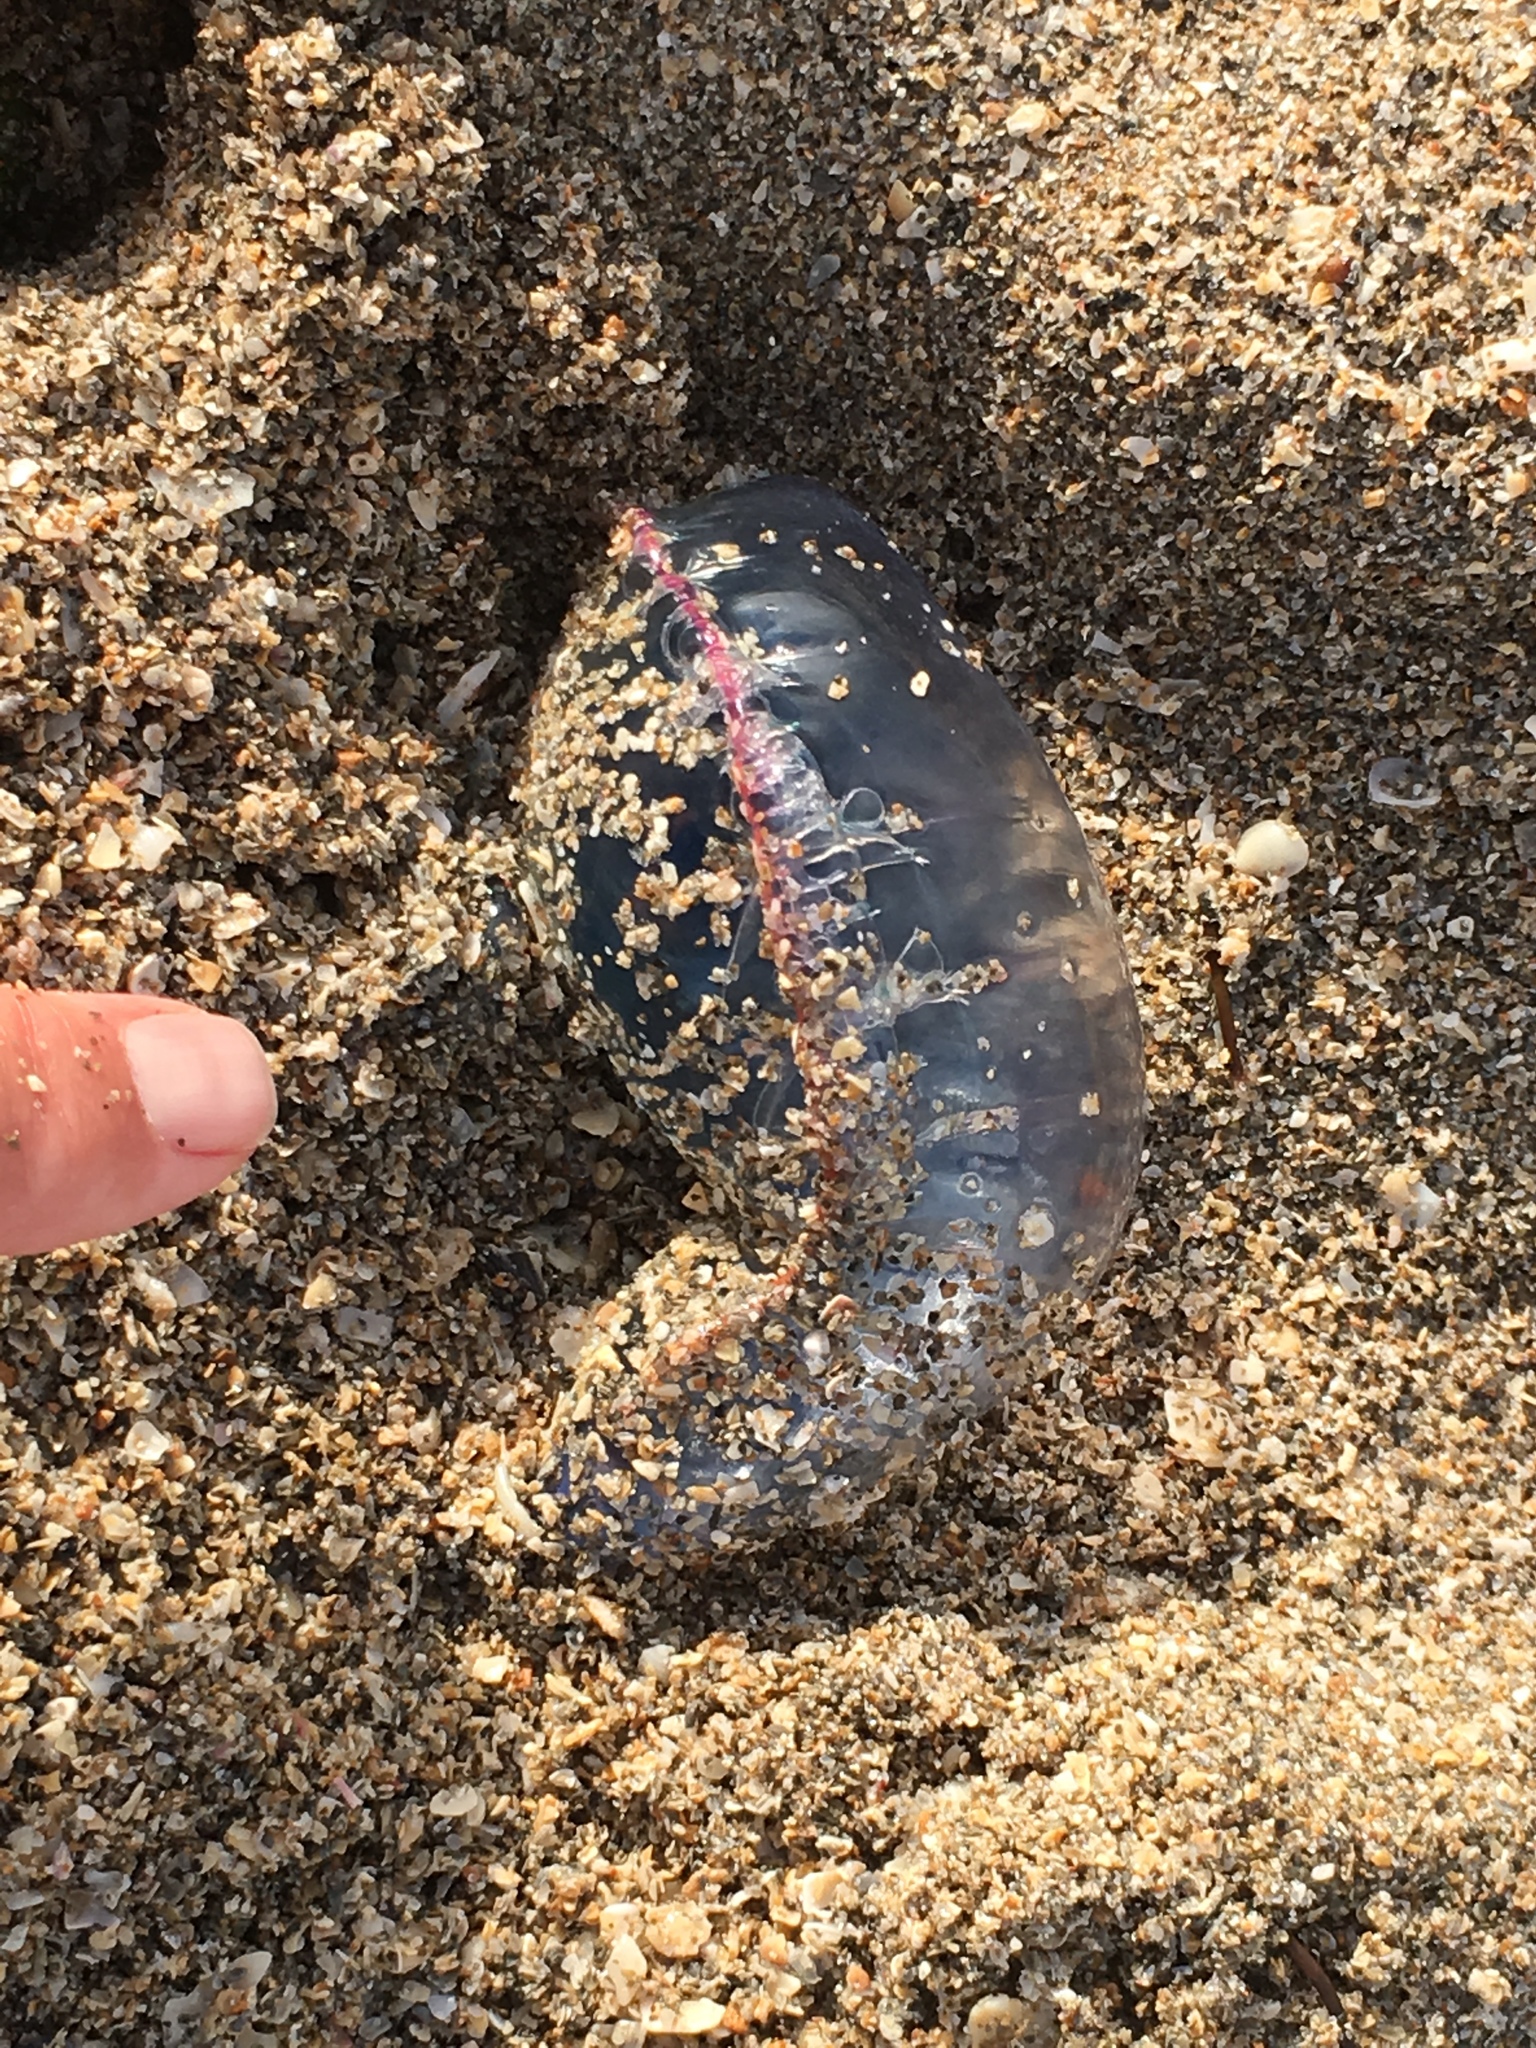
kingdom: Animalia
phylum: Cnidaria
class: Hydrozoa
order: Siphonophorae
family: Physaliidae
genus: Physalia
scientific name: Physalia physalis
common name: Portuguese man-of-war
